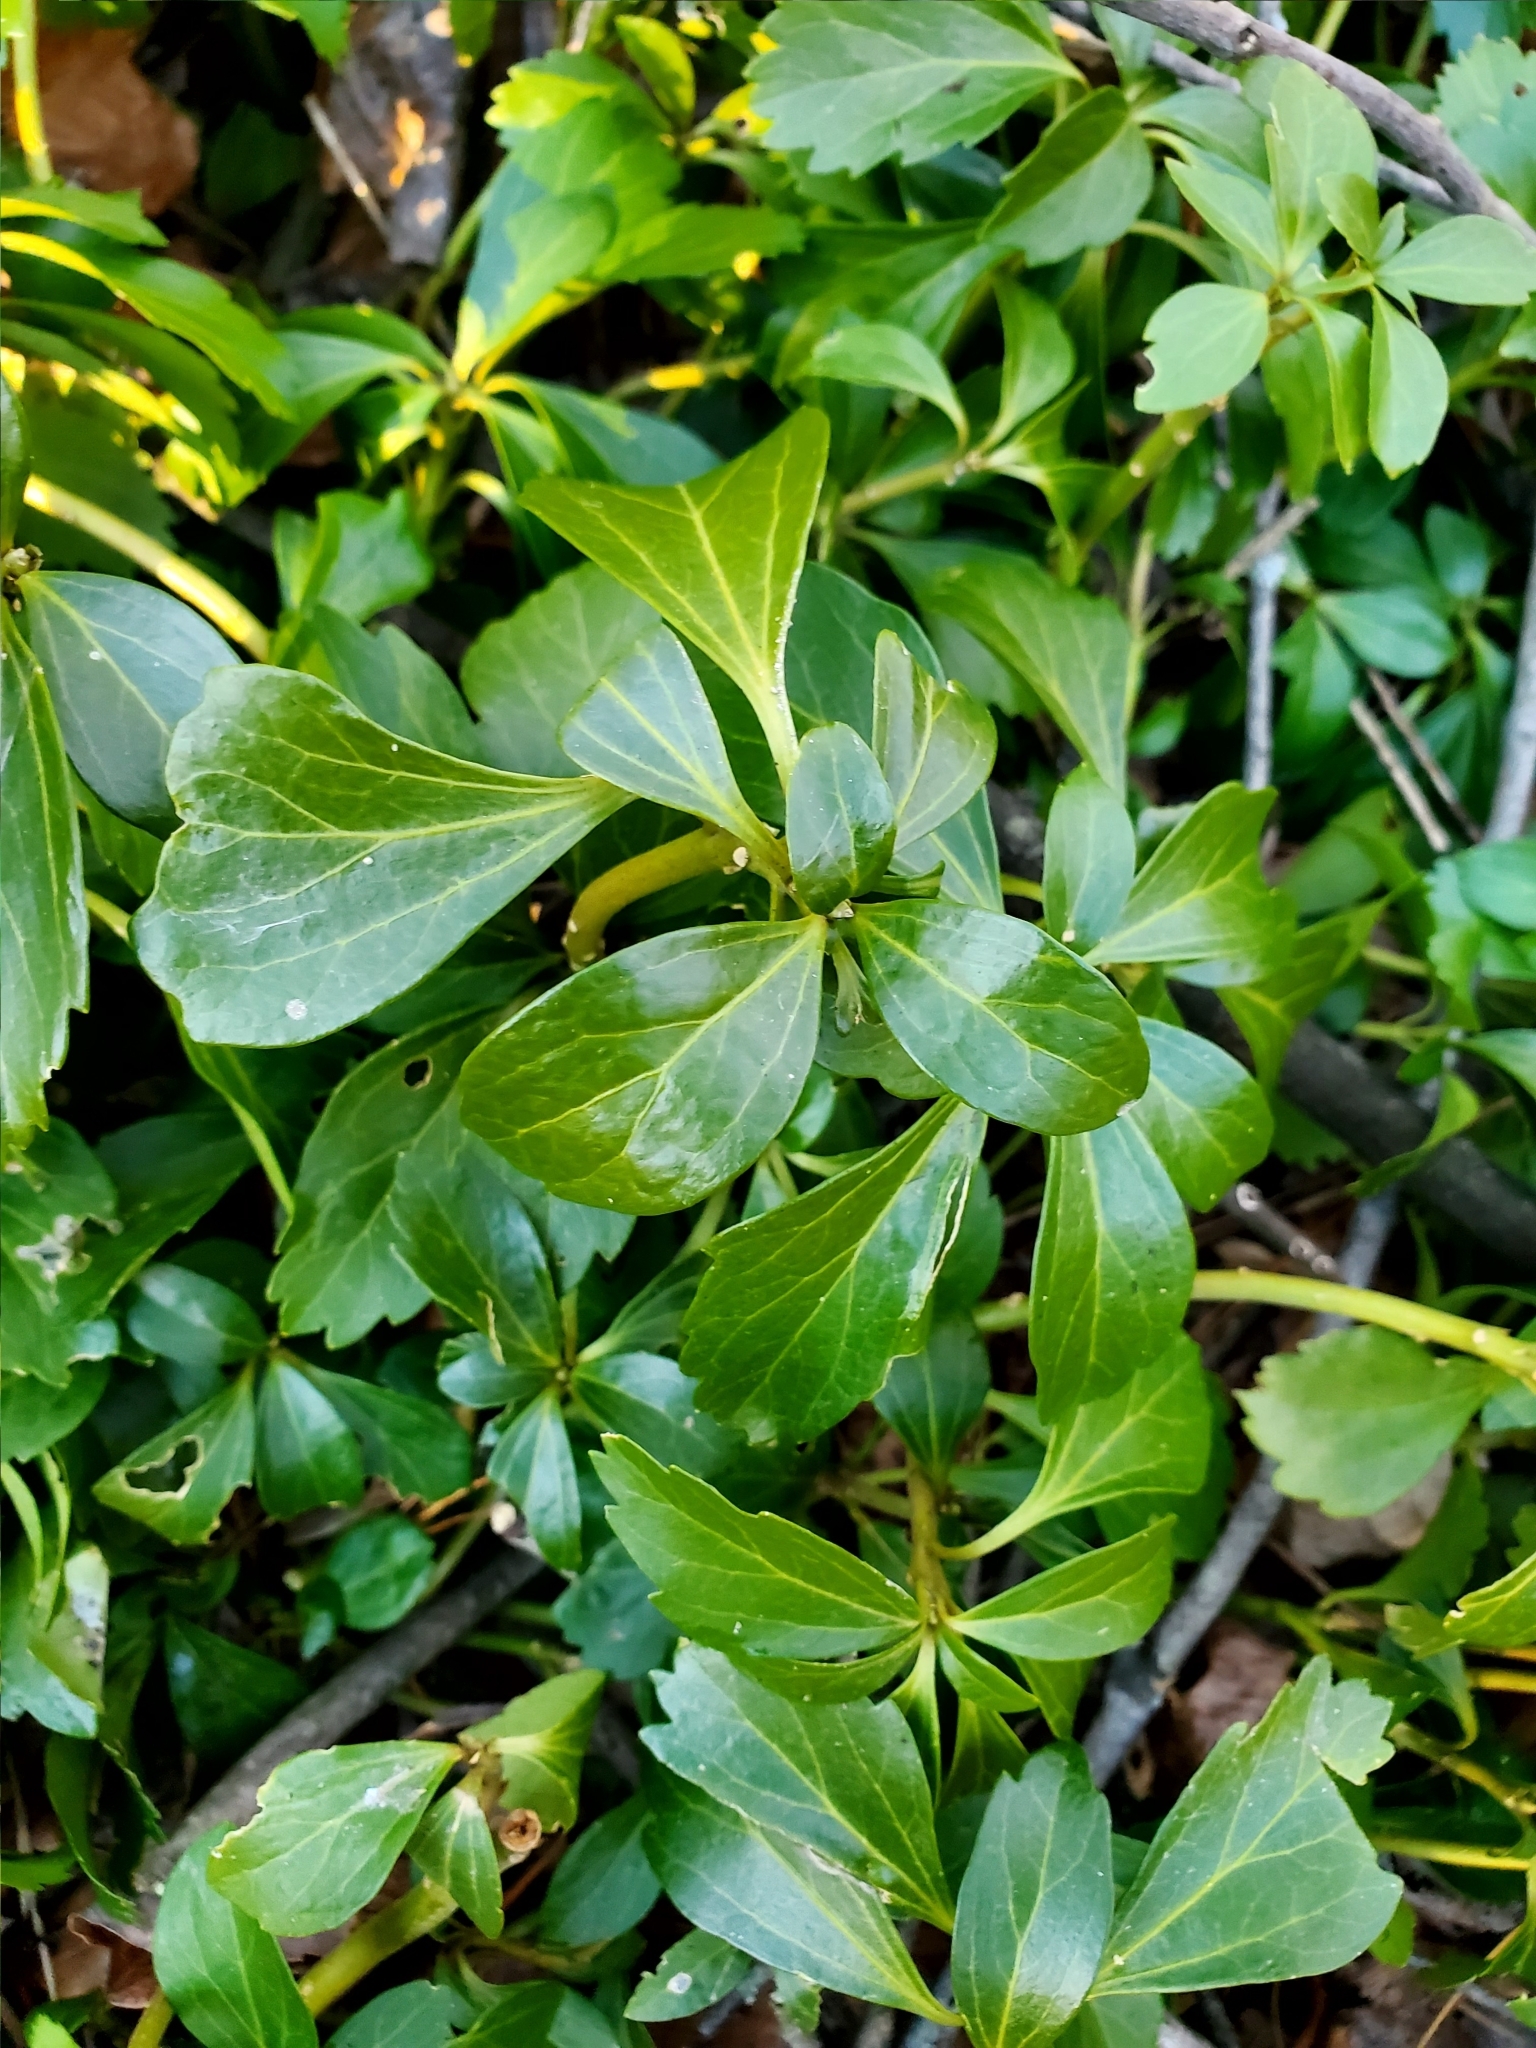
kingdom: Plantae
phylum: Tracheophyta
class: Magnoliopsida
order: Buxales
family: Buxaceae
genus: Pachysandra
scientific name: Pachysandra terminalis
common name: Japanese pachysandra
